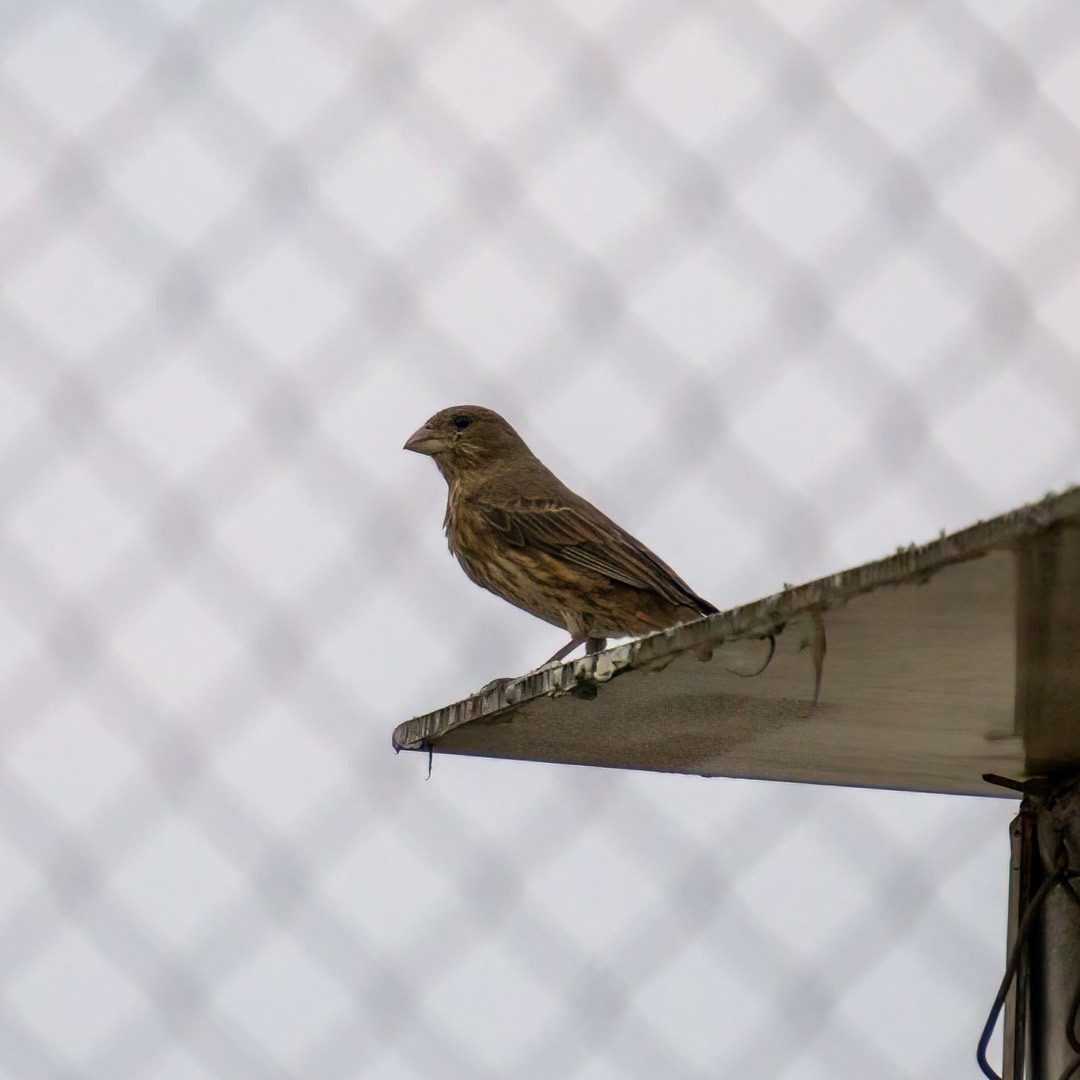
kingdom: Animalia
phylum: Chordata
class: Aves
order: Passeriformes
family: Fringillidae
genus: Haemorhous
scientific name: Haemorhous mexicanus
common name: House finch
